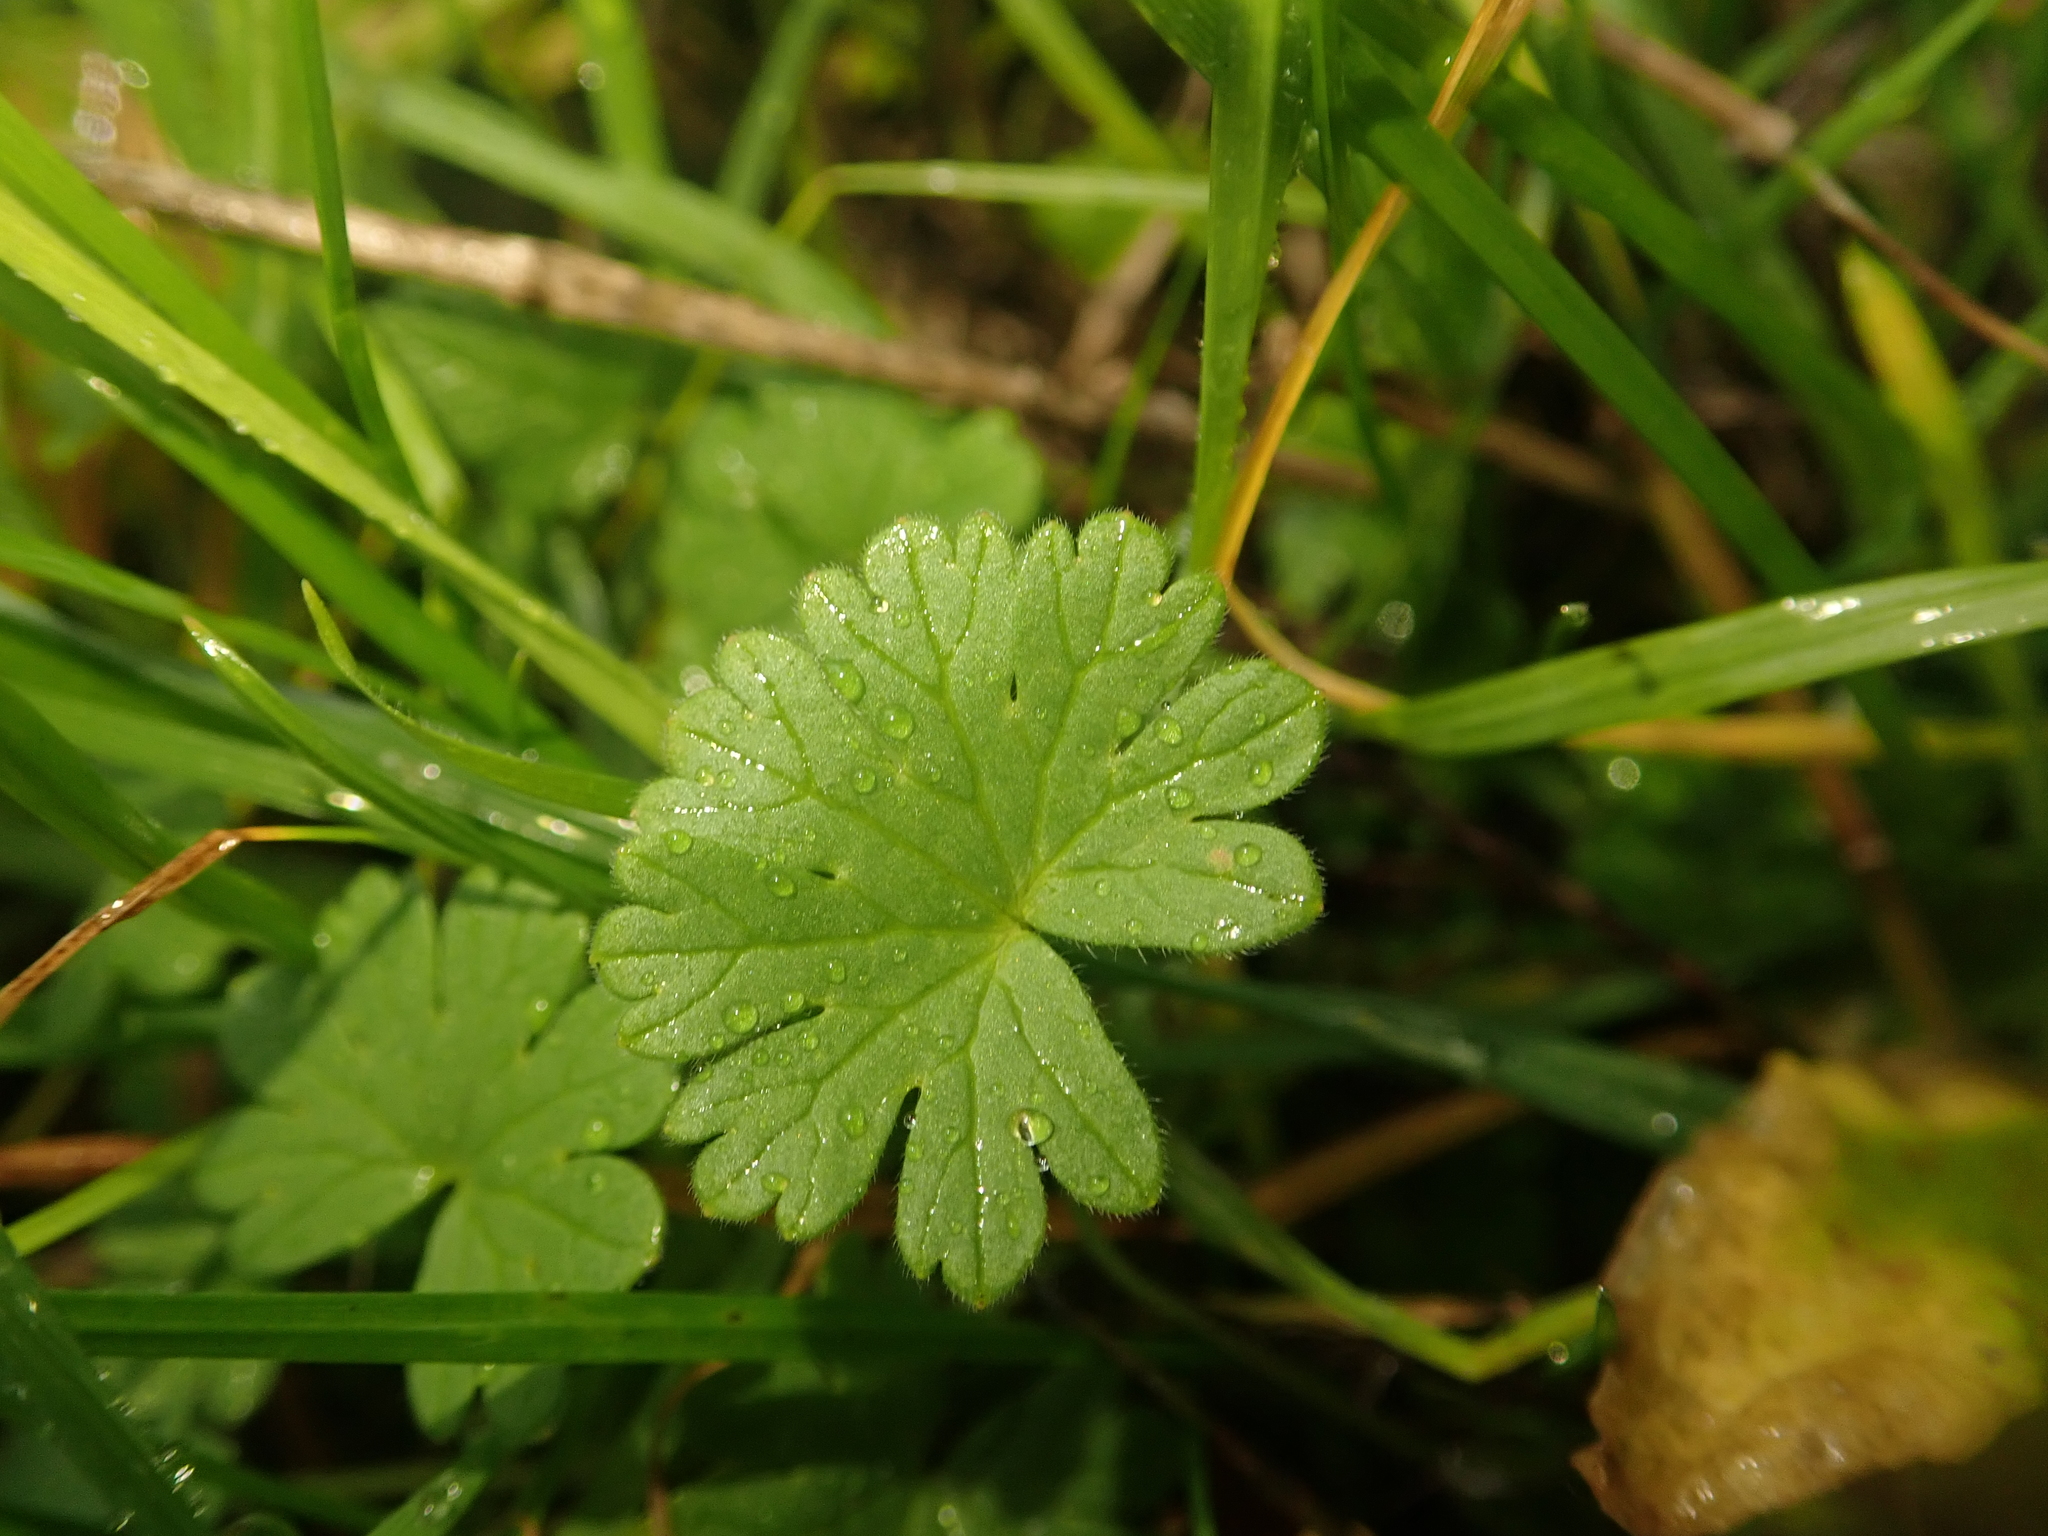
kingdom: Plantae
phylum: Tracheophyta
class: Magnoliopsida
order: Geraniales
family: Geraniaceae
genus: Geranium
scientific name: Geranium molle
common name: Dove's-foot crane's-bill
